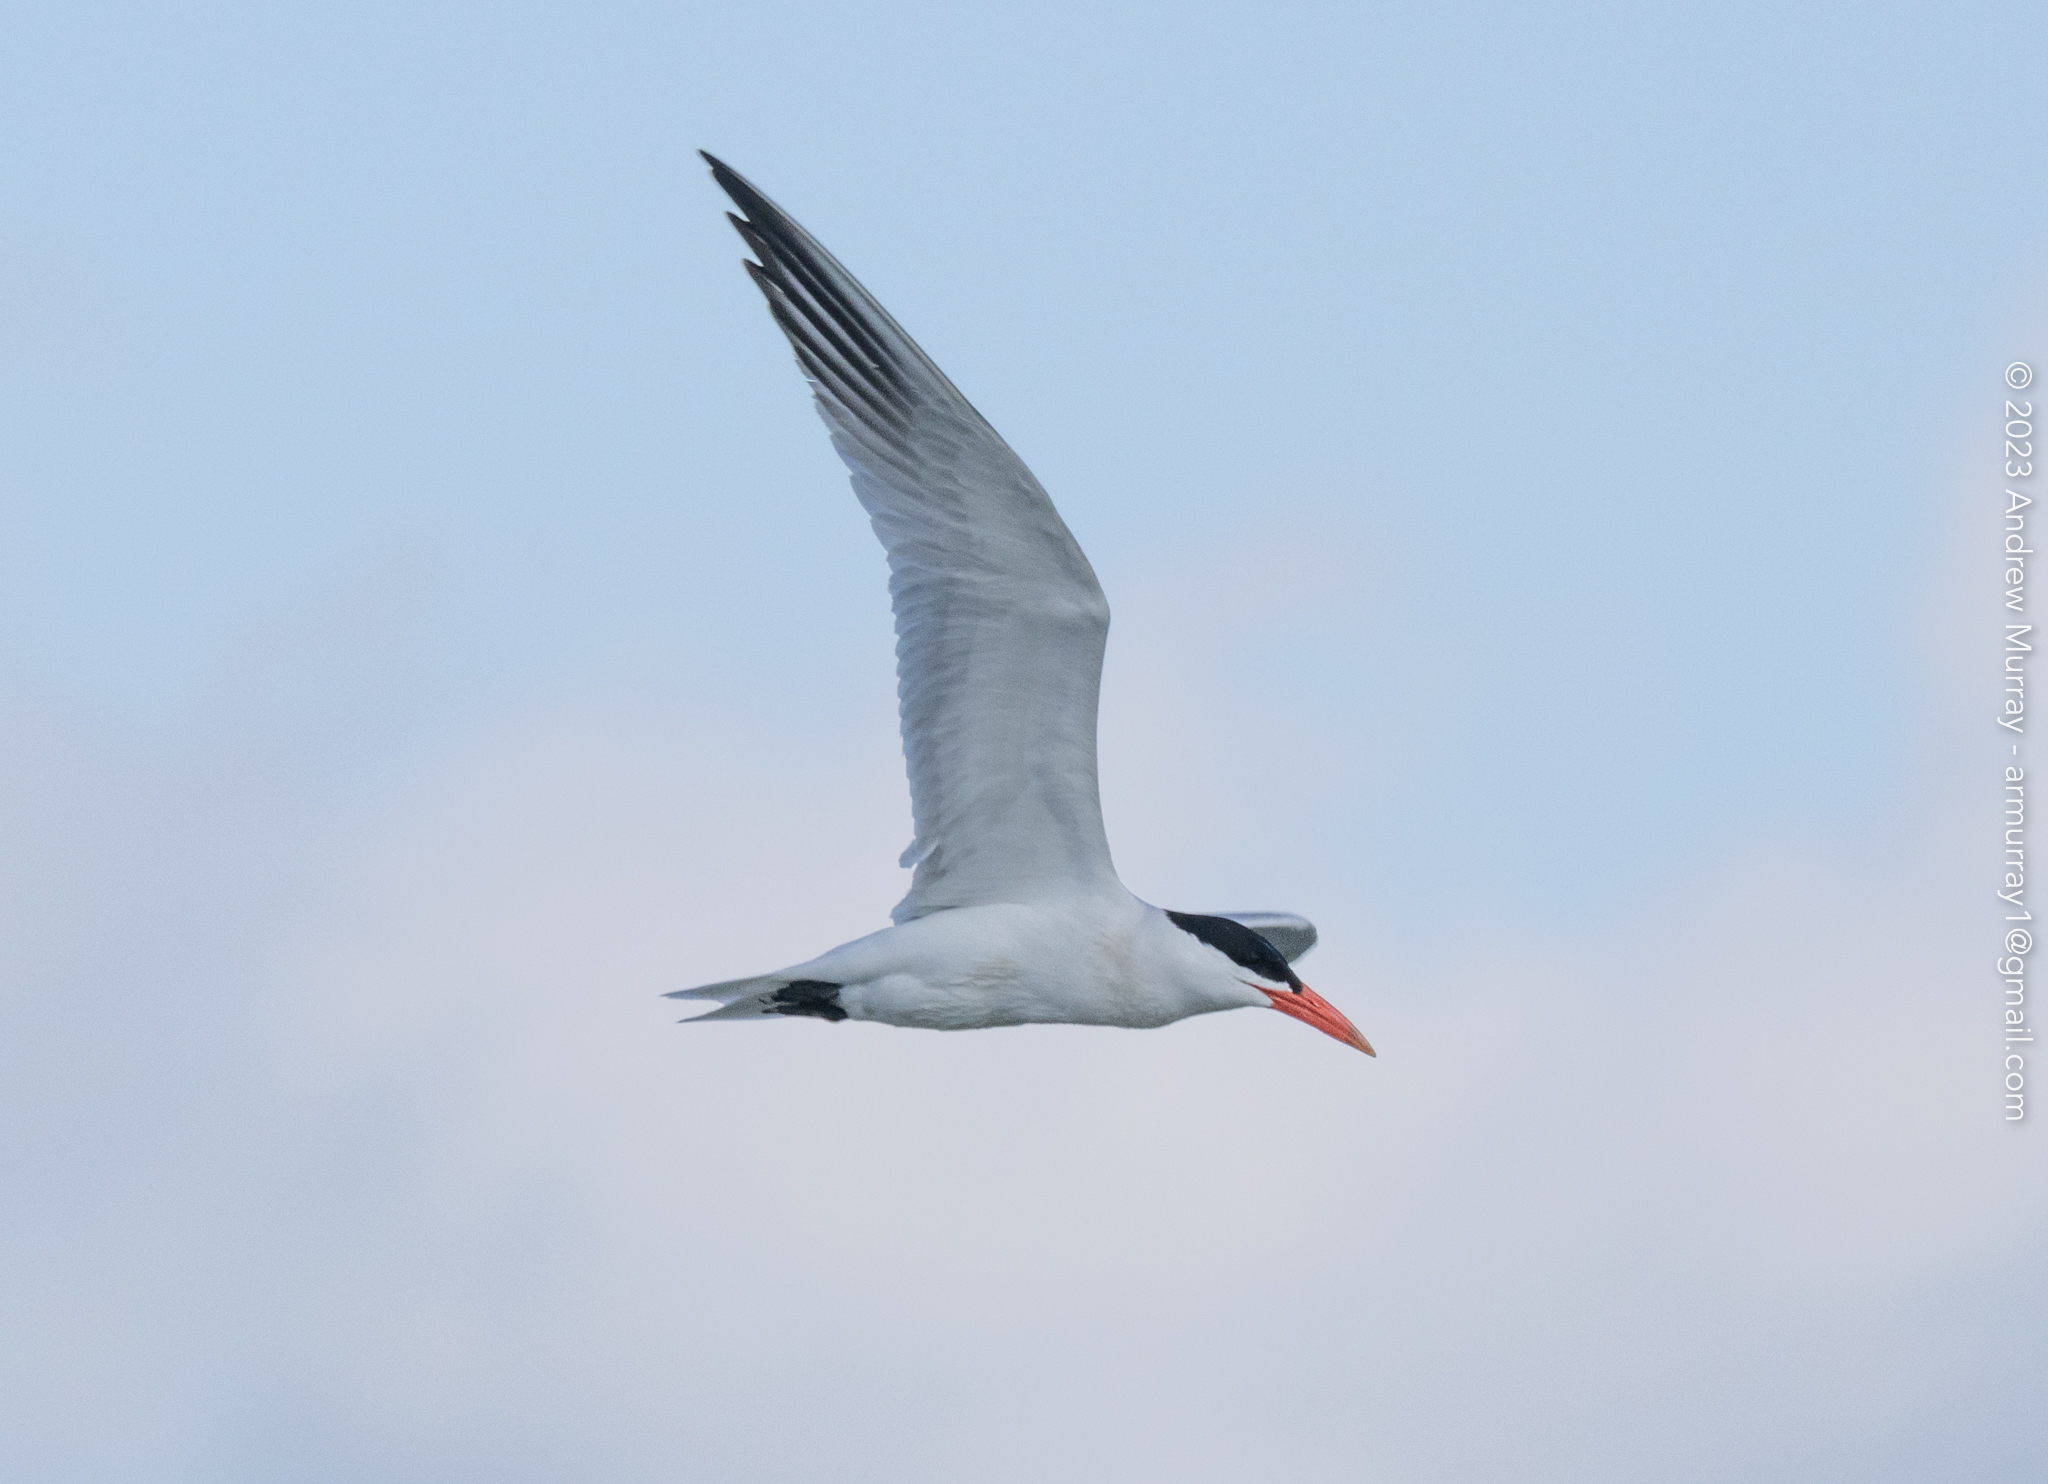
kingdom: Animalia
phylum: Chordata
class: Aves
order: Charadriiformes
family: Laridae
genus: Hydroprogne
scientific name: Hydroprogne caspia
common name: Caspian tern
